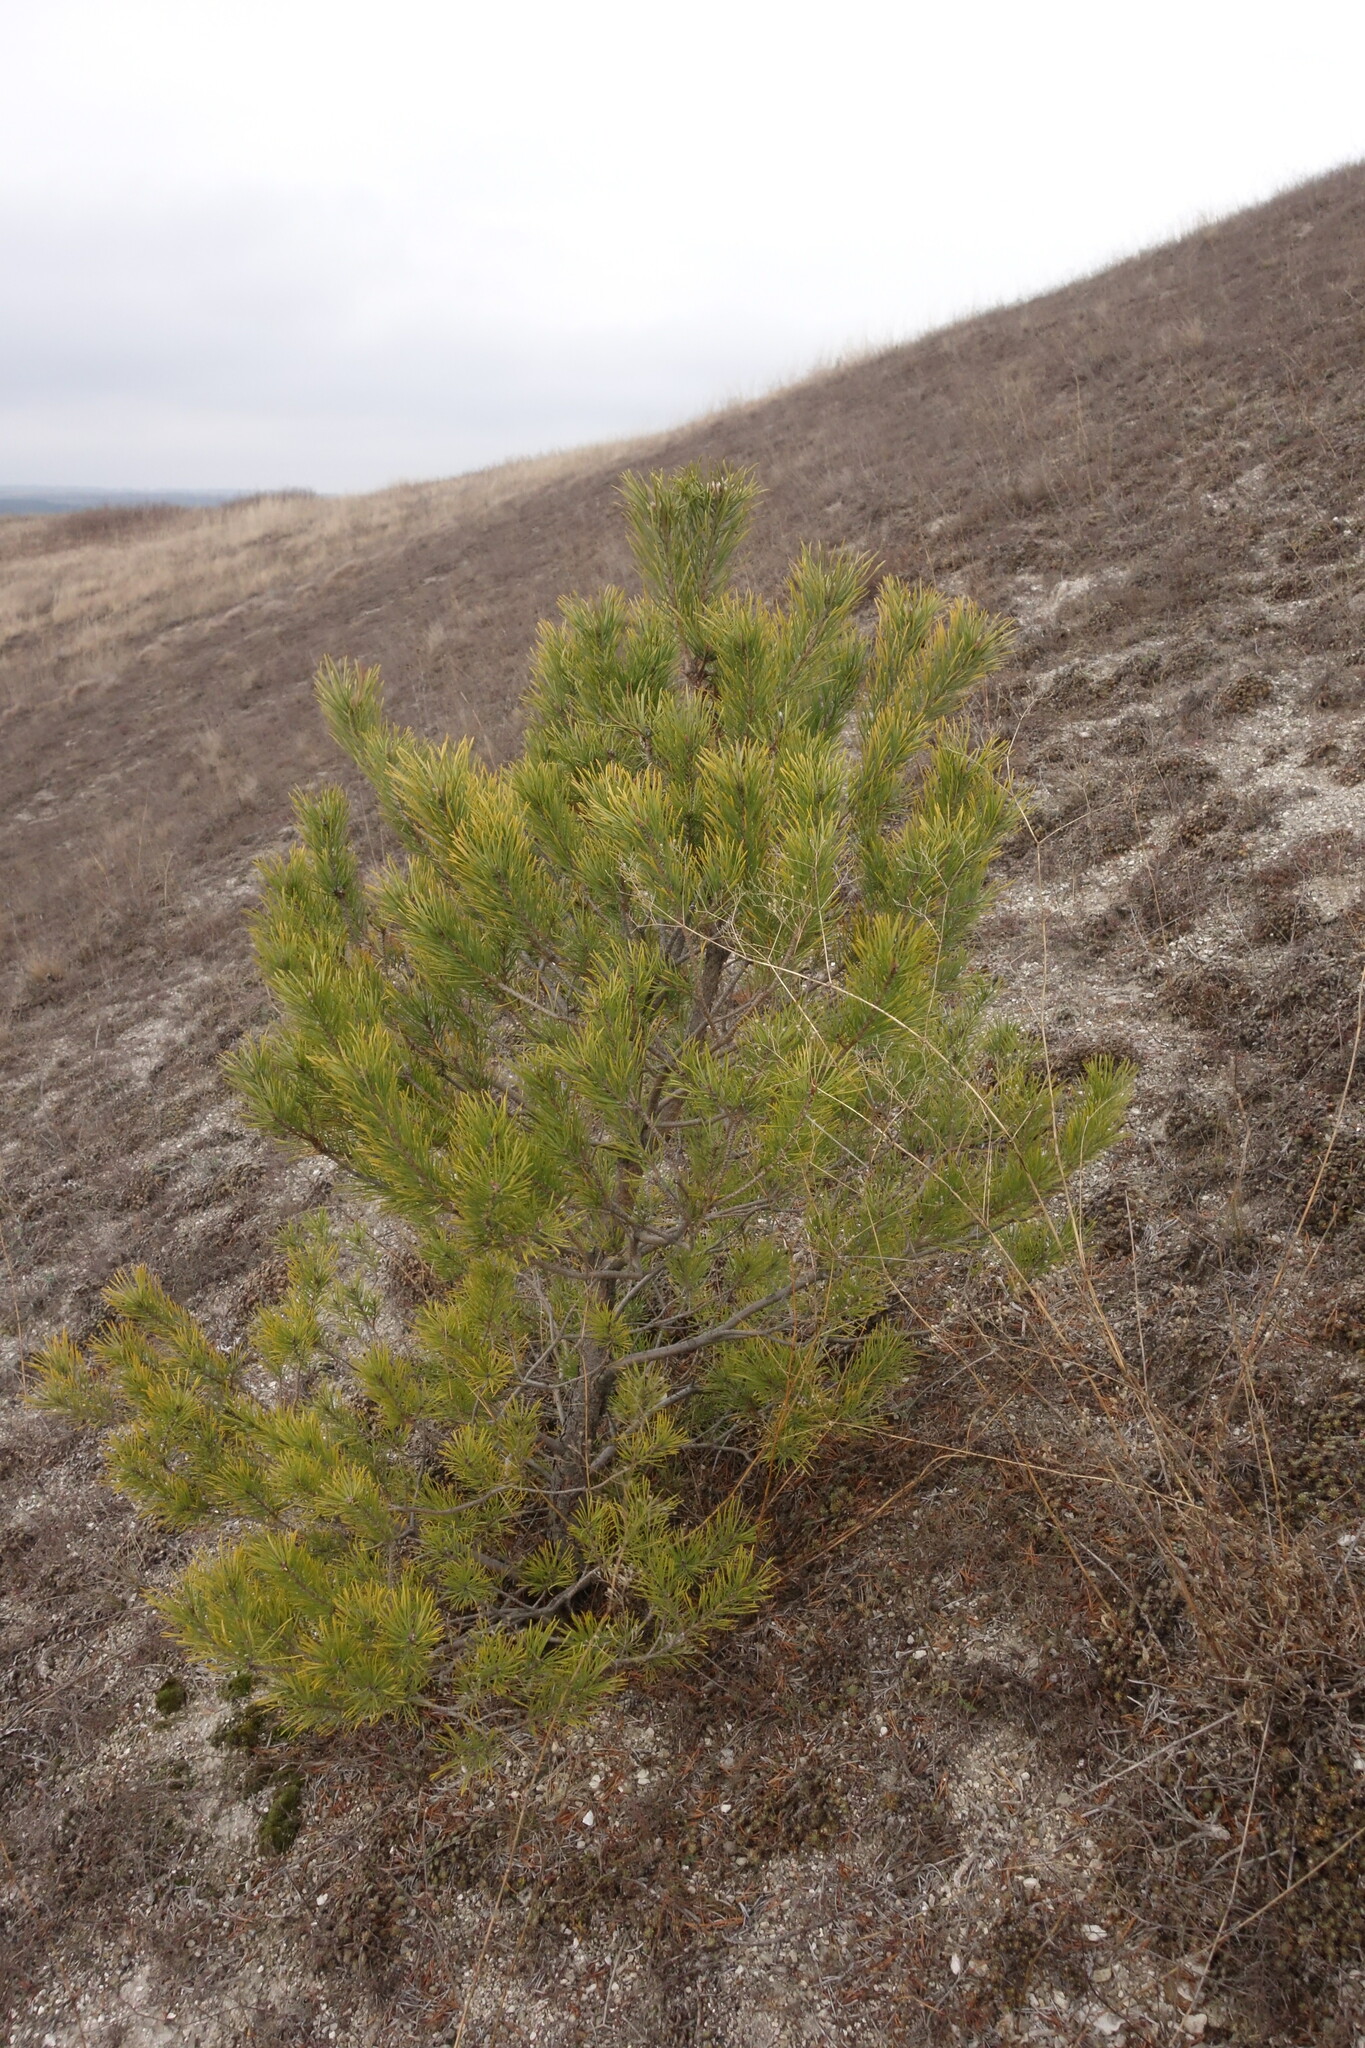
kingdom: Plantae
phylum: Tracheophyta
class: Pinopsida
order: Pinales
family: Pinaceae
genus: Pinus
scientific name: Pinus sylvestris
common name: Scots pine
